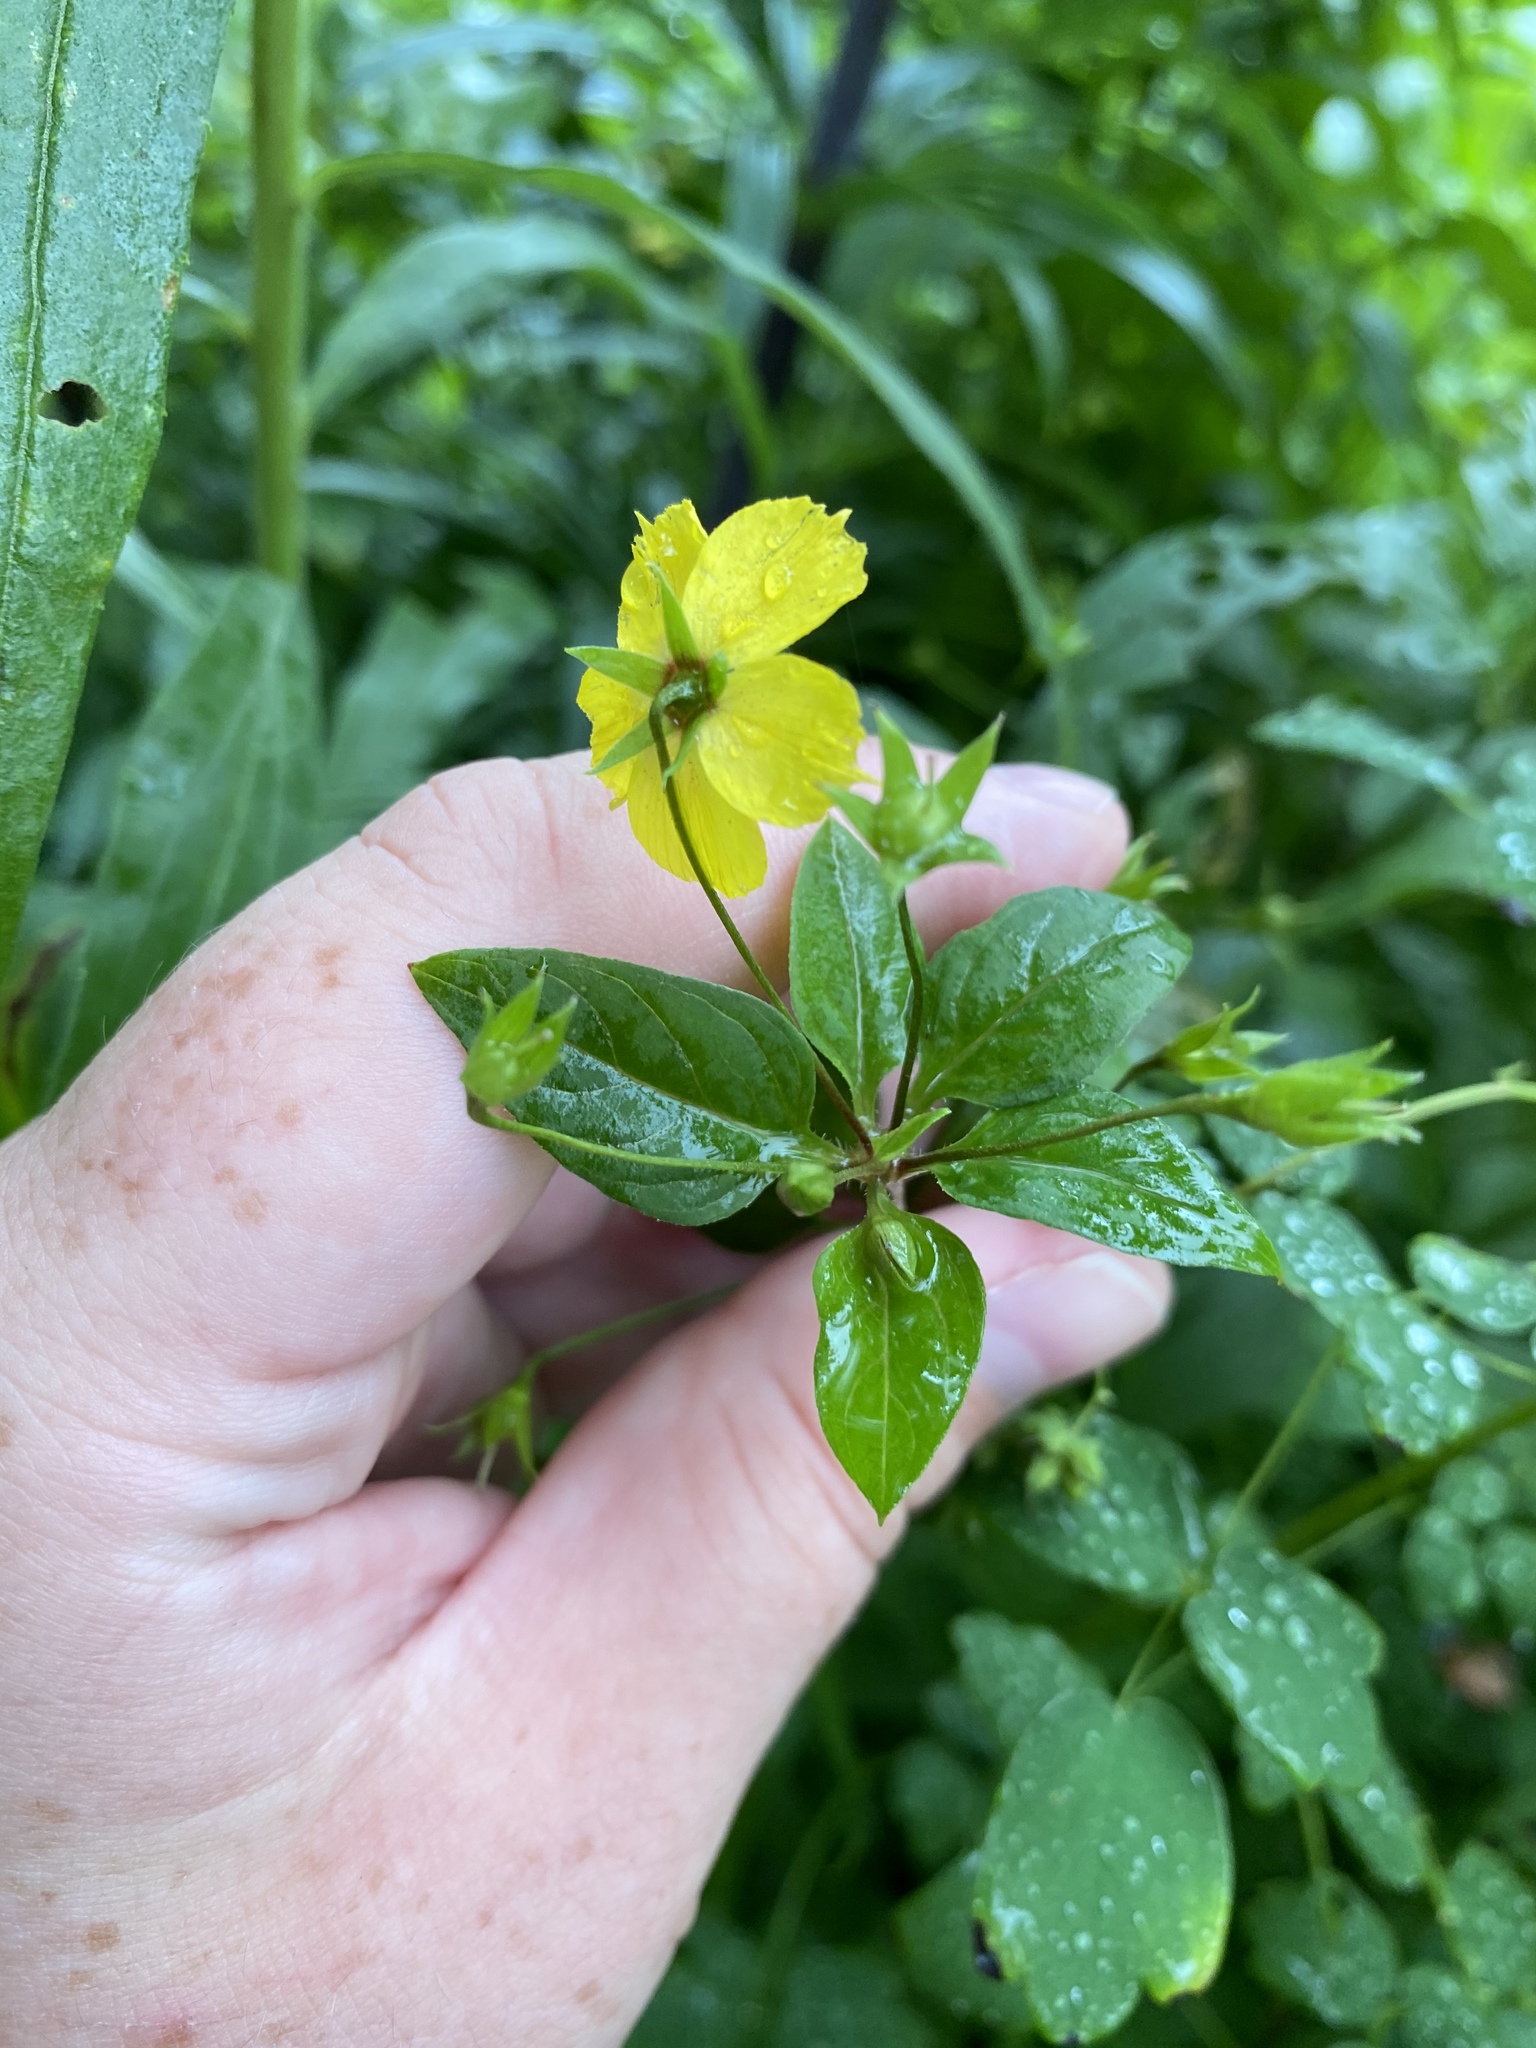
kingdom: Plantae
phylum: Tracheophyta
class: Magnoliopsida
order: Ericales
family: Primulaceae
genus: Lysimachia
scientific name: Lysimachia ciliata
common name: Fringed loosestrife
